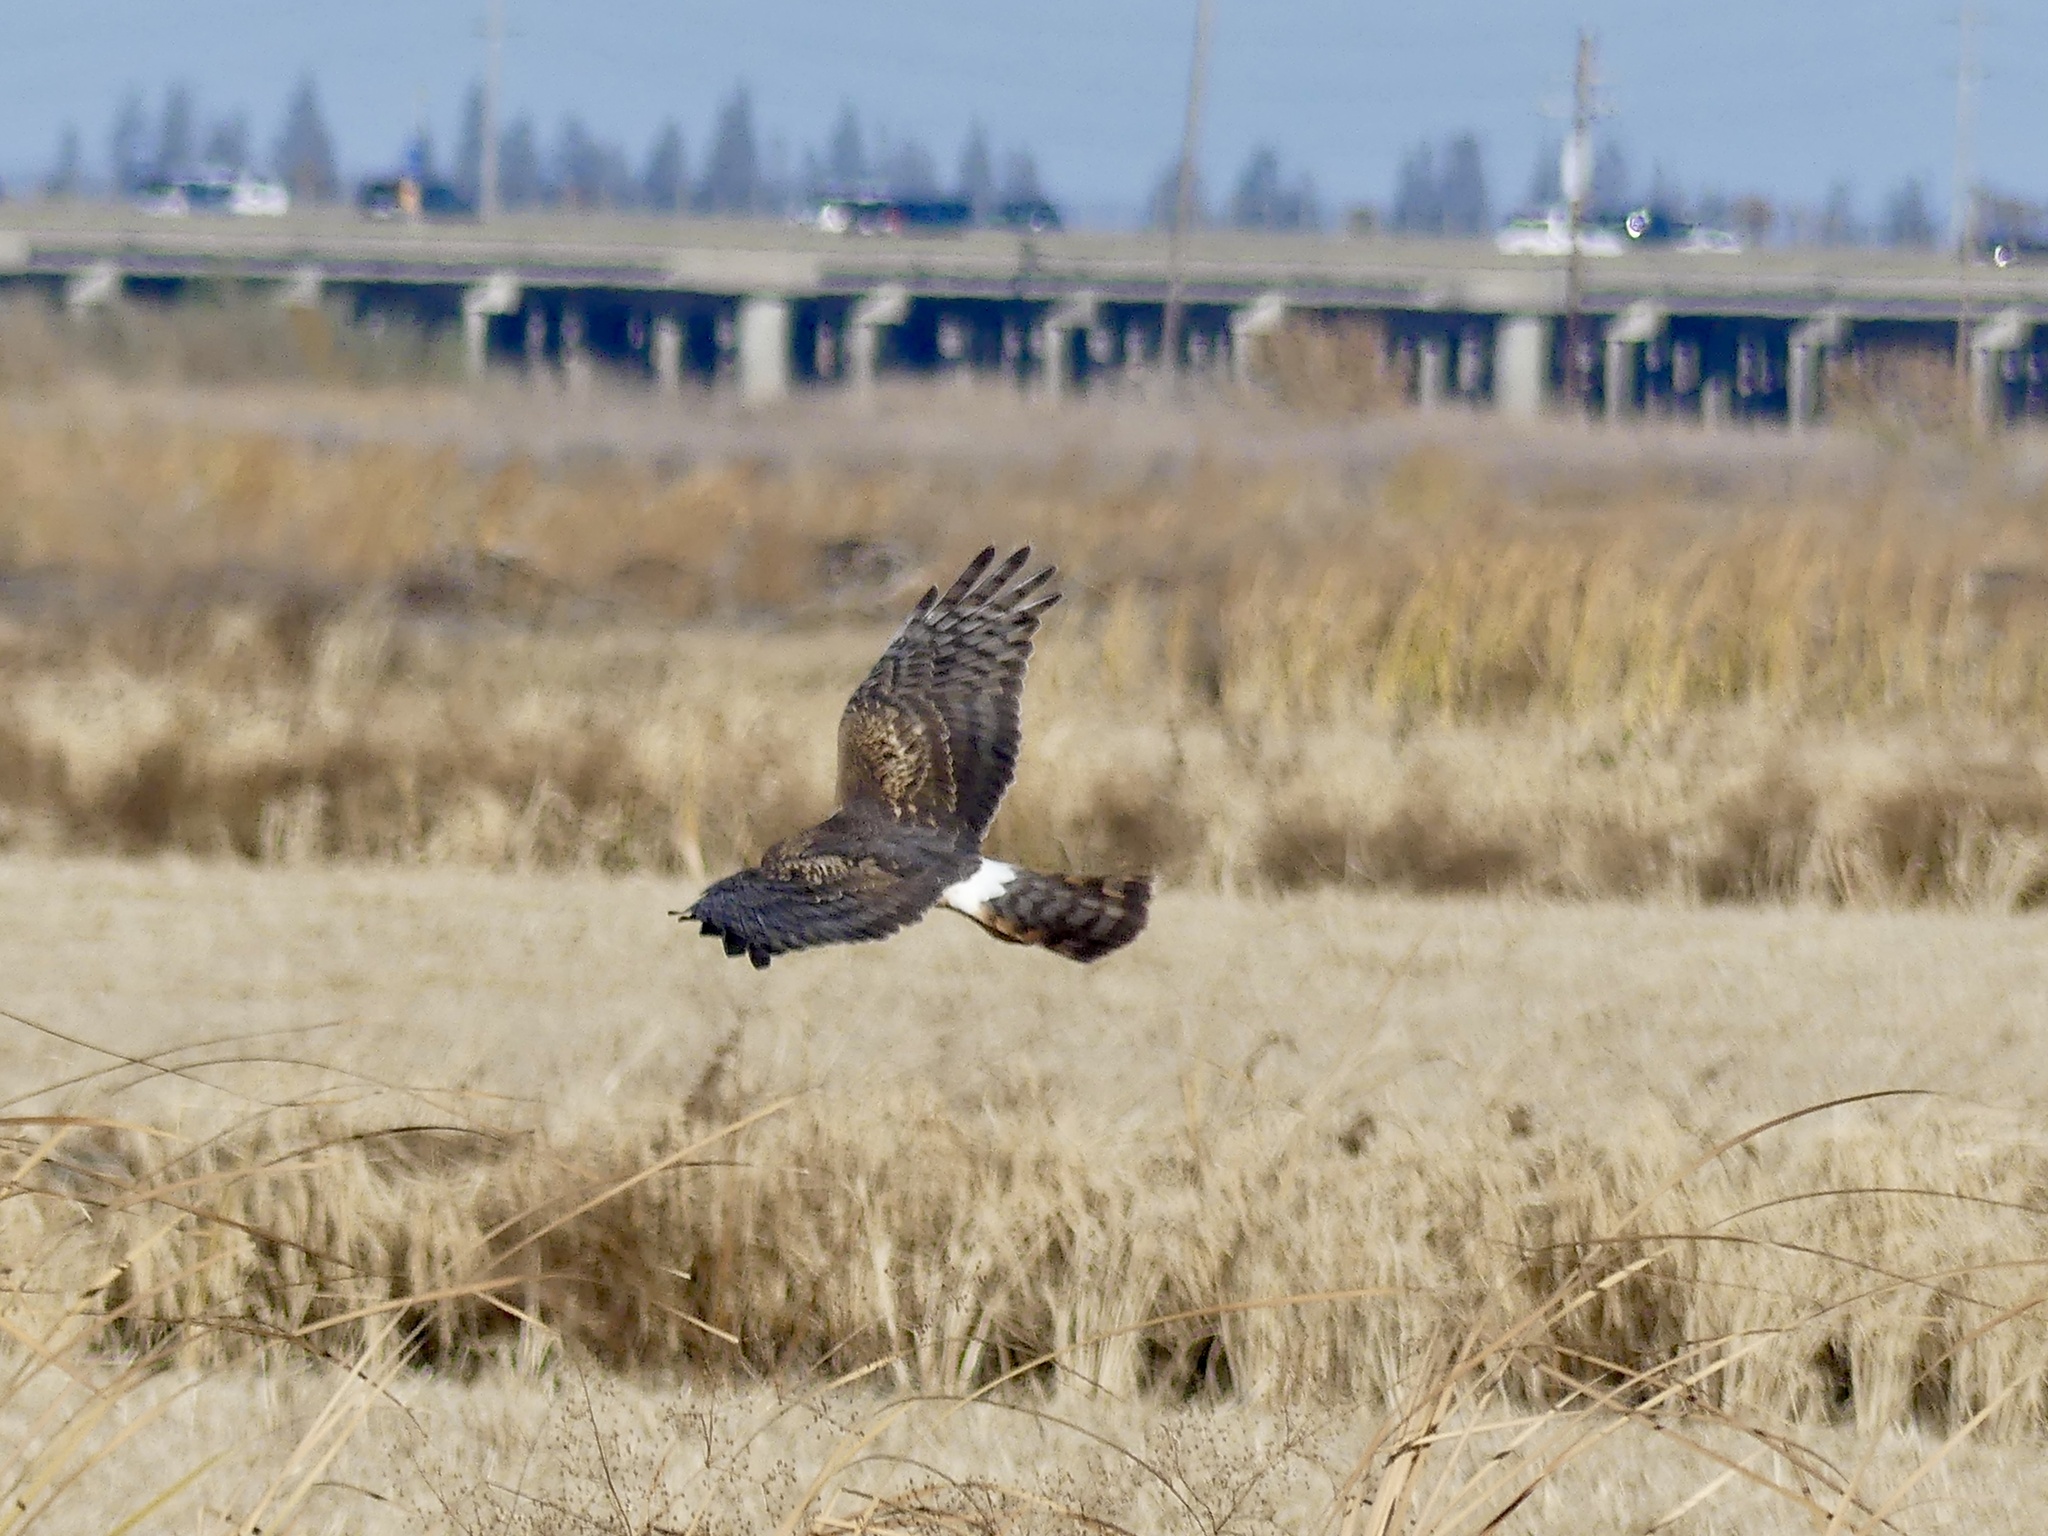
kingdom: Animalia
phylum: Chordata
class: Aves
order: Accipitriformes
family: Accipitridae
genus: Circus
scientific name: Circus cyaneus
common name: Hen harrier
